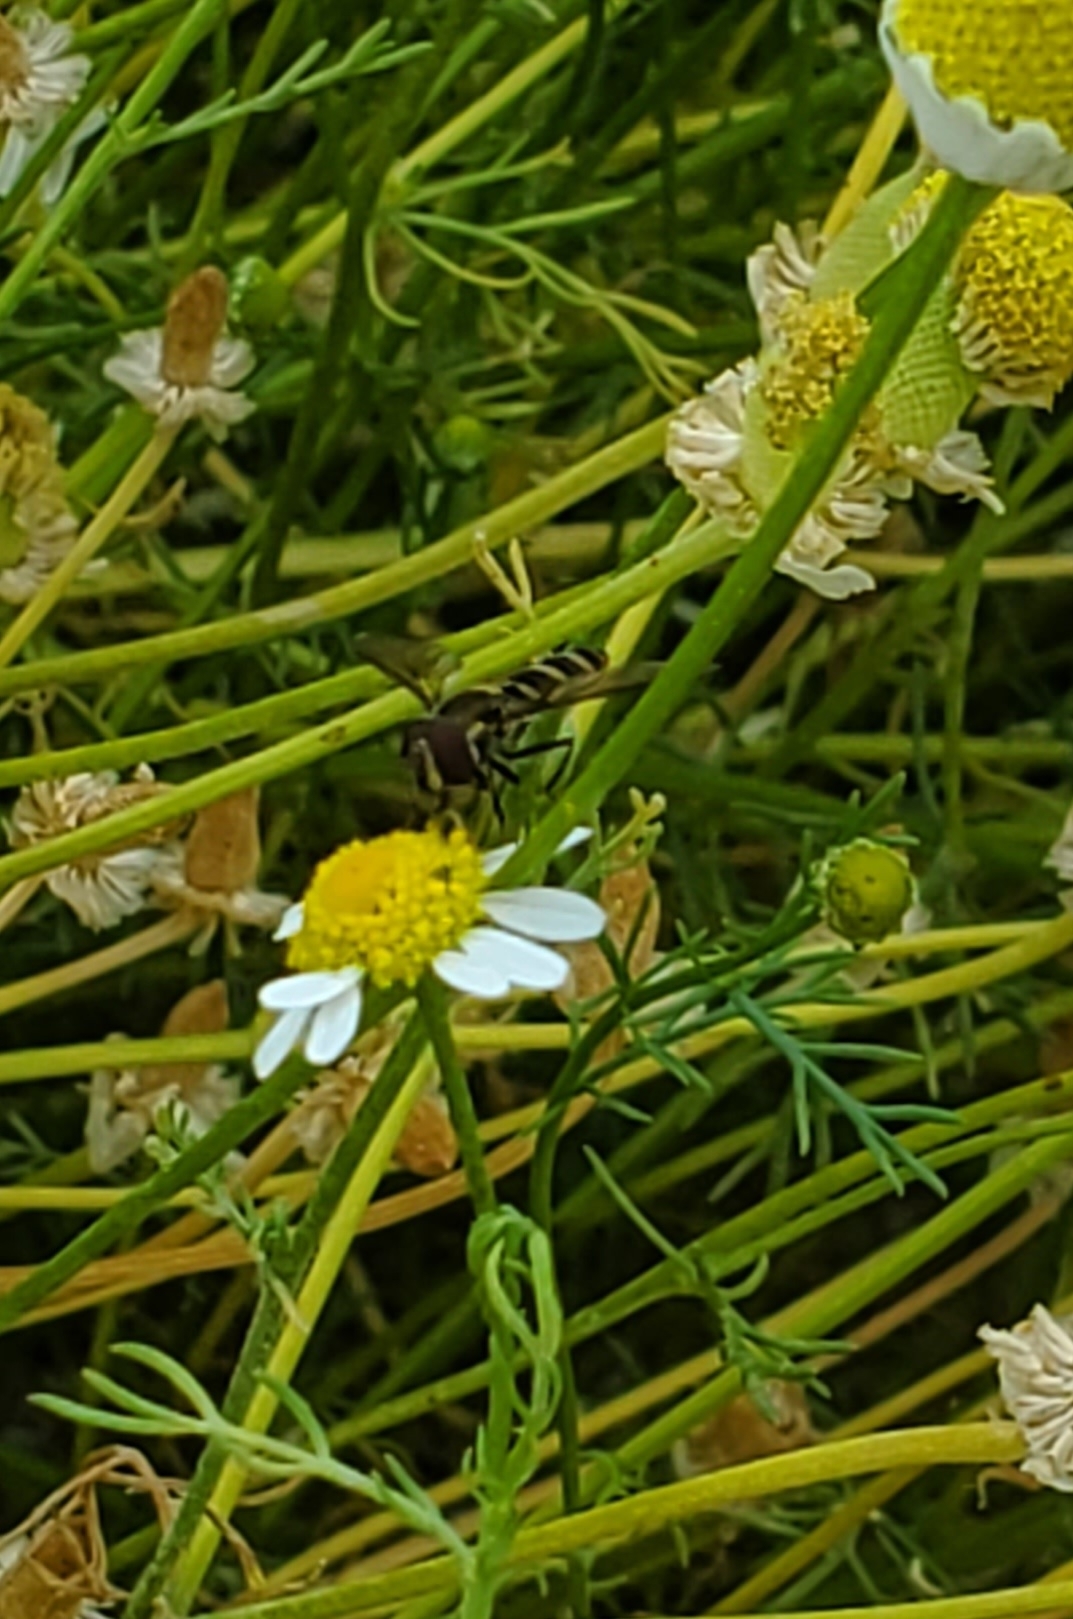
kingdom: Animalia
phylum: Arthropoda
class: Insecta
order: Diptera
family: Syrphidae
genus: Fazia
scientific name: Fazia micrura
